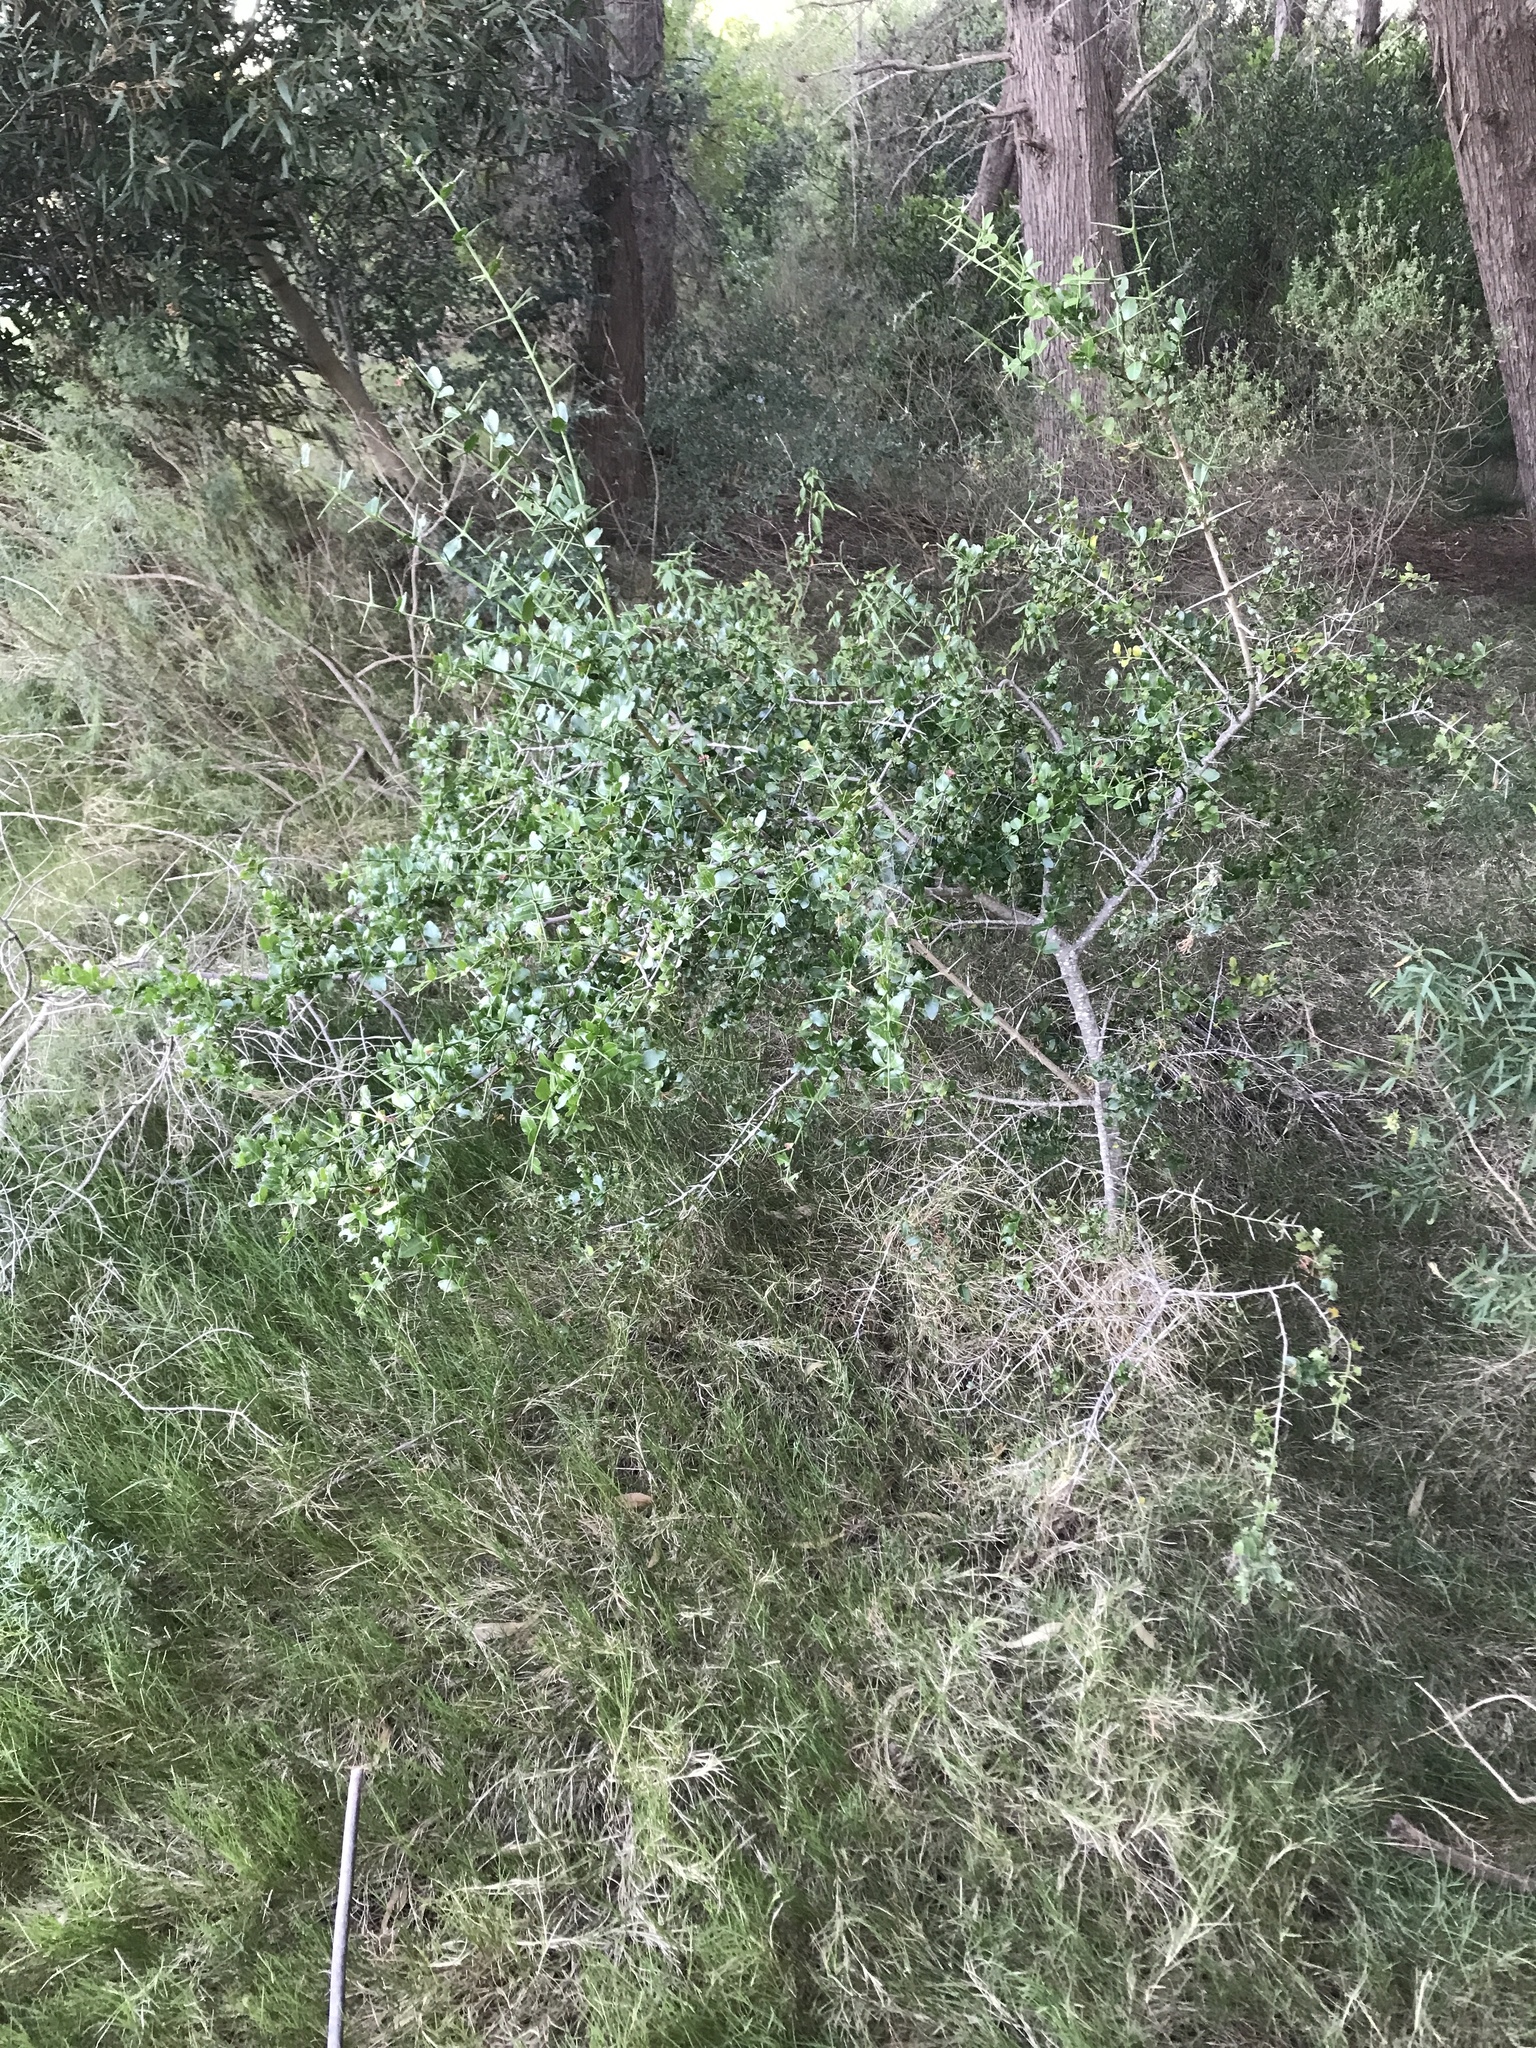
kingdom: Plantae
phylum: Tracheophyta
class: Magnoliopsida
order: Rosales
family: Rhamnaceae
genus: Scutia
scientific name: Scutia buxifolia
